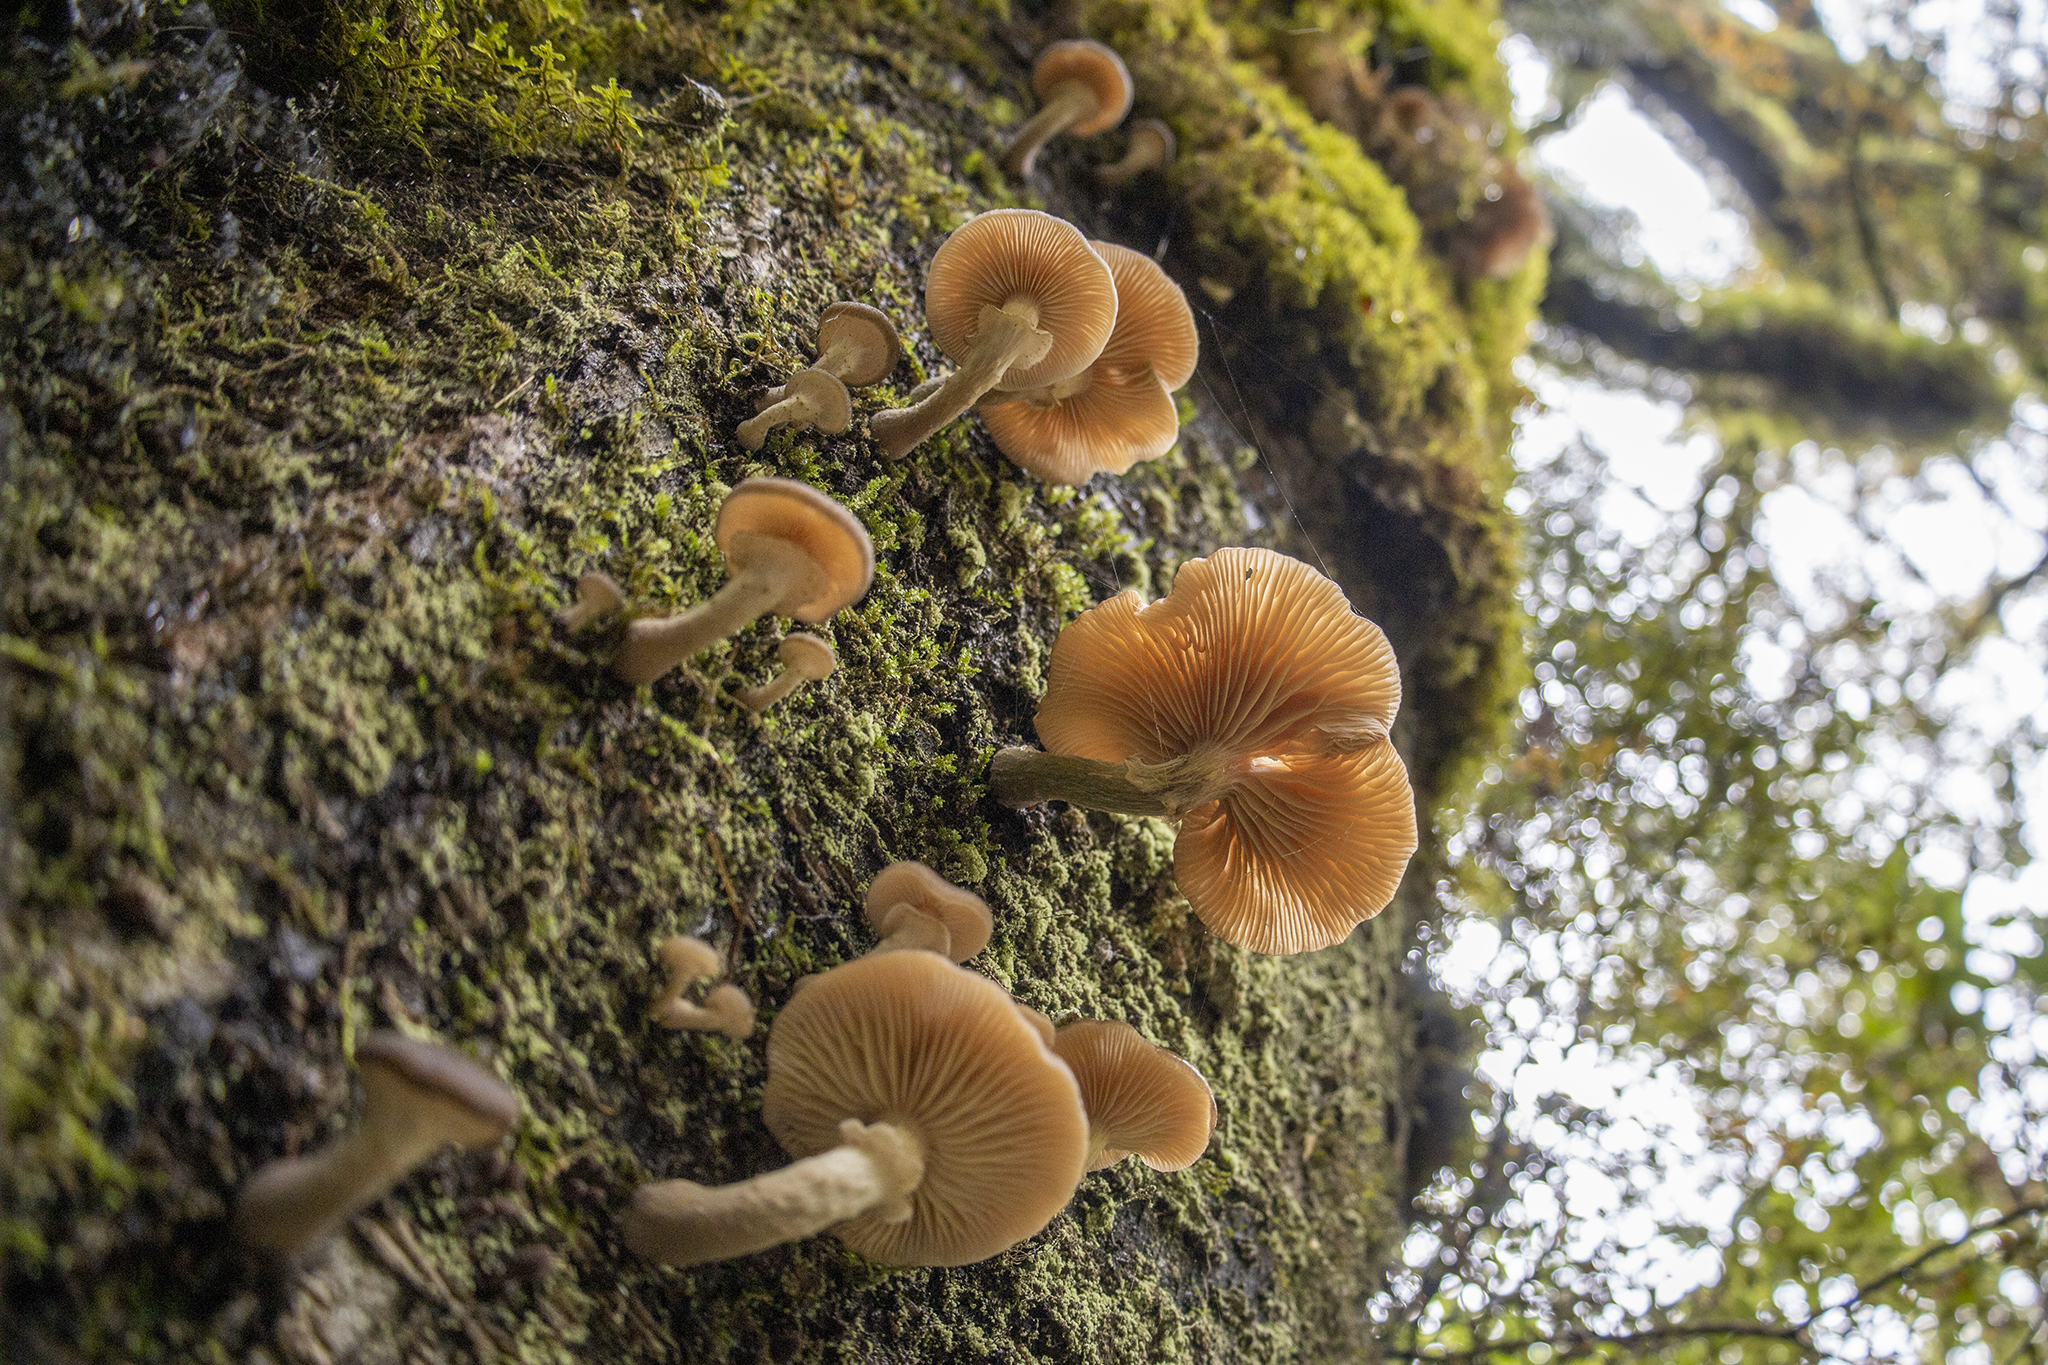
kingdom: Fungi
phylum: Basidiomycota
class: Agaricomycetes
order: Agaricales
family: Physalacriaceae
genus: Armillaria
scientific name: Armillaria novae-zelandiae
